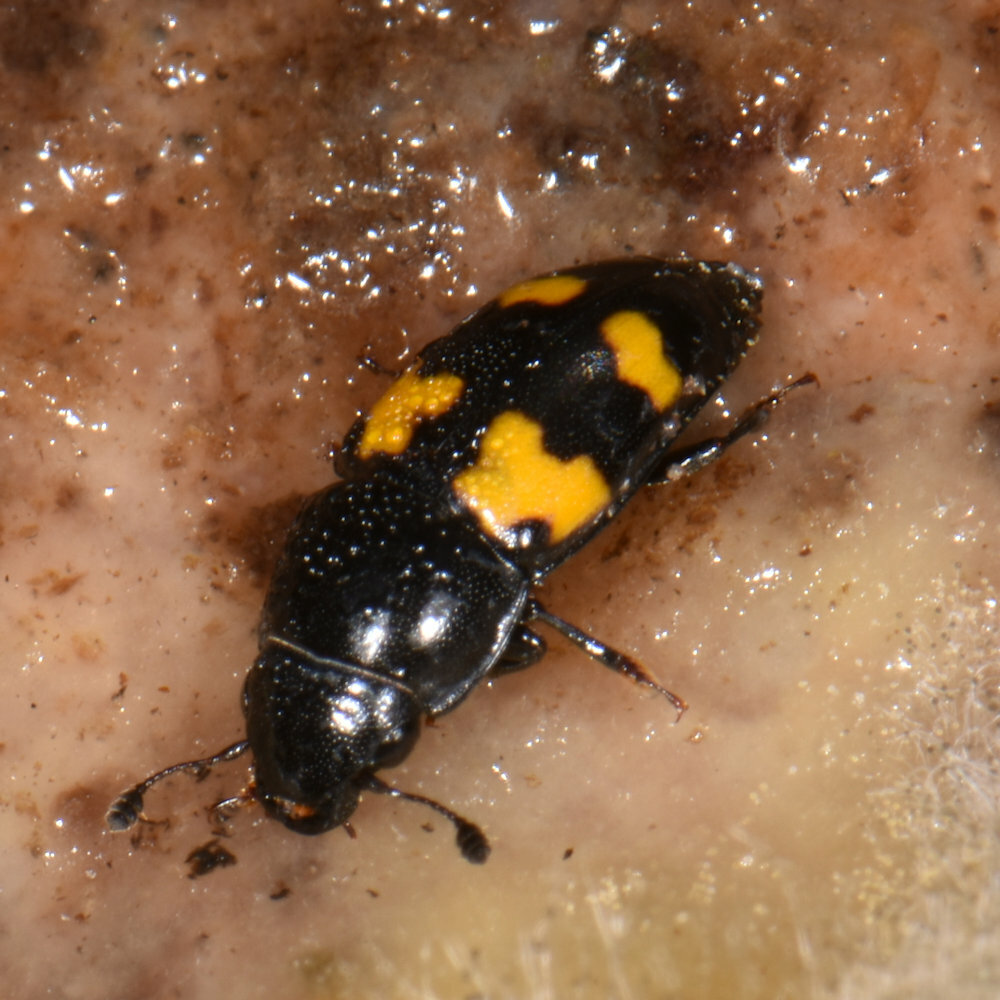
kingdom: Animalia
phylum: Arthropoda
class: Insecta
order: Coleoptera
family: Nitidulidae
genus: Glischrochilus
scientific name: Glischrochilus fasciatus
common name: Picnic beetle
